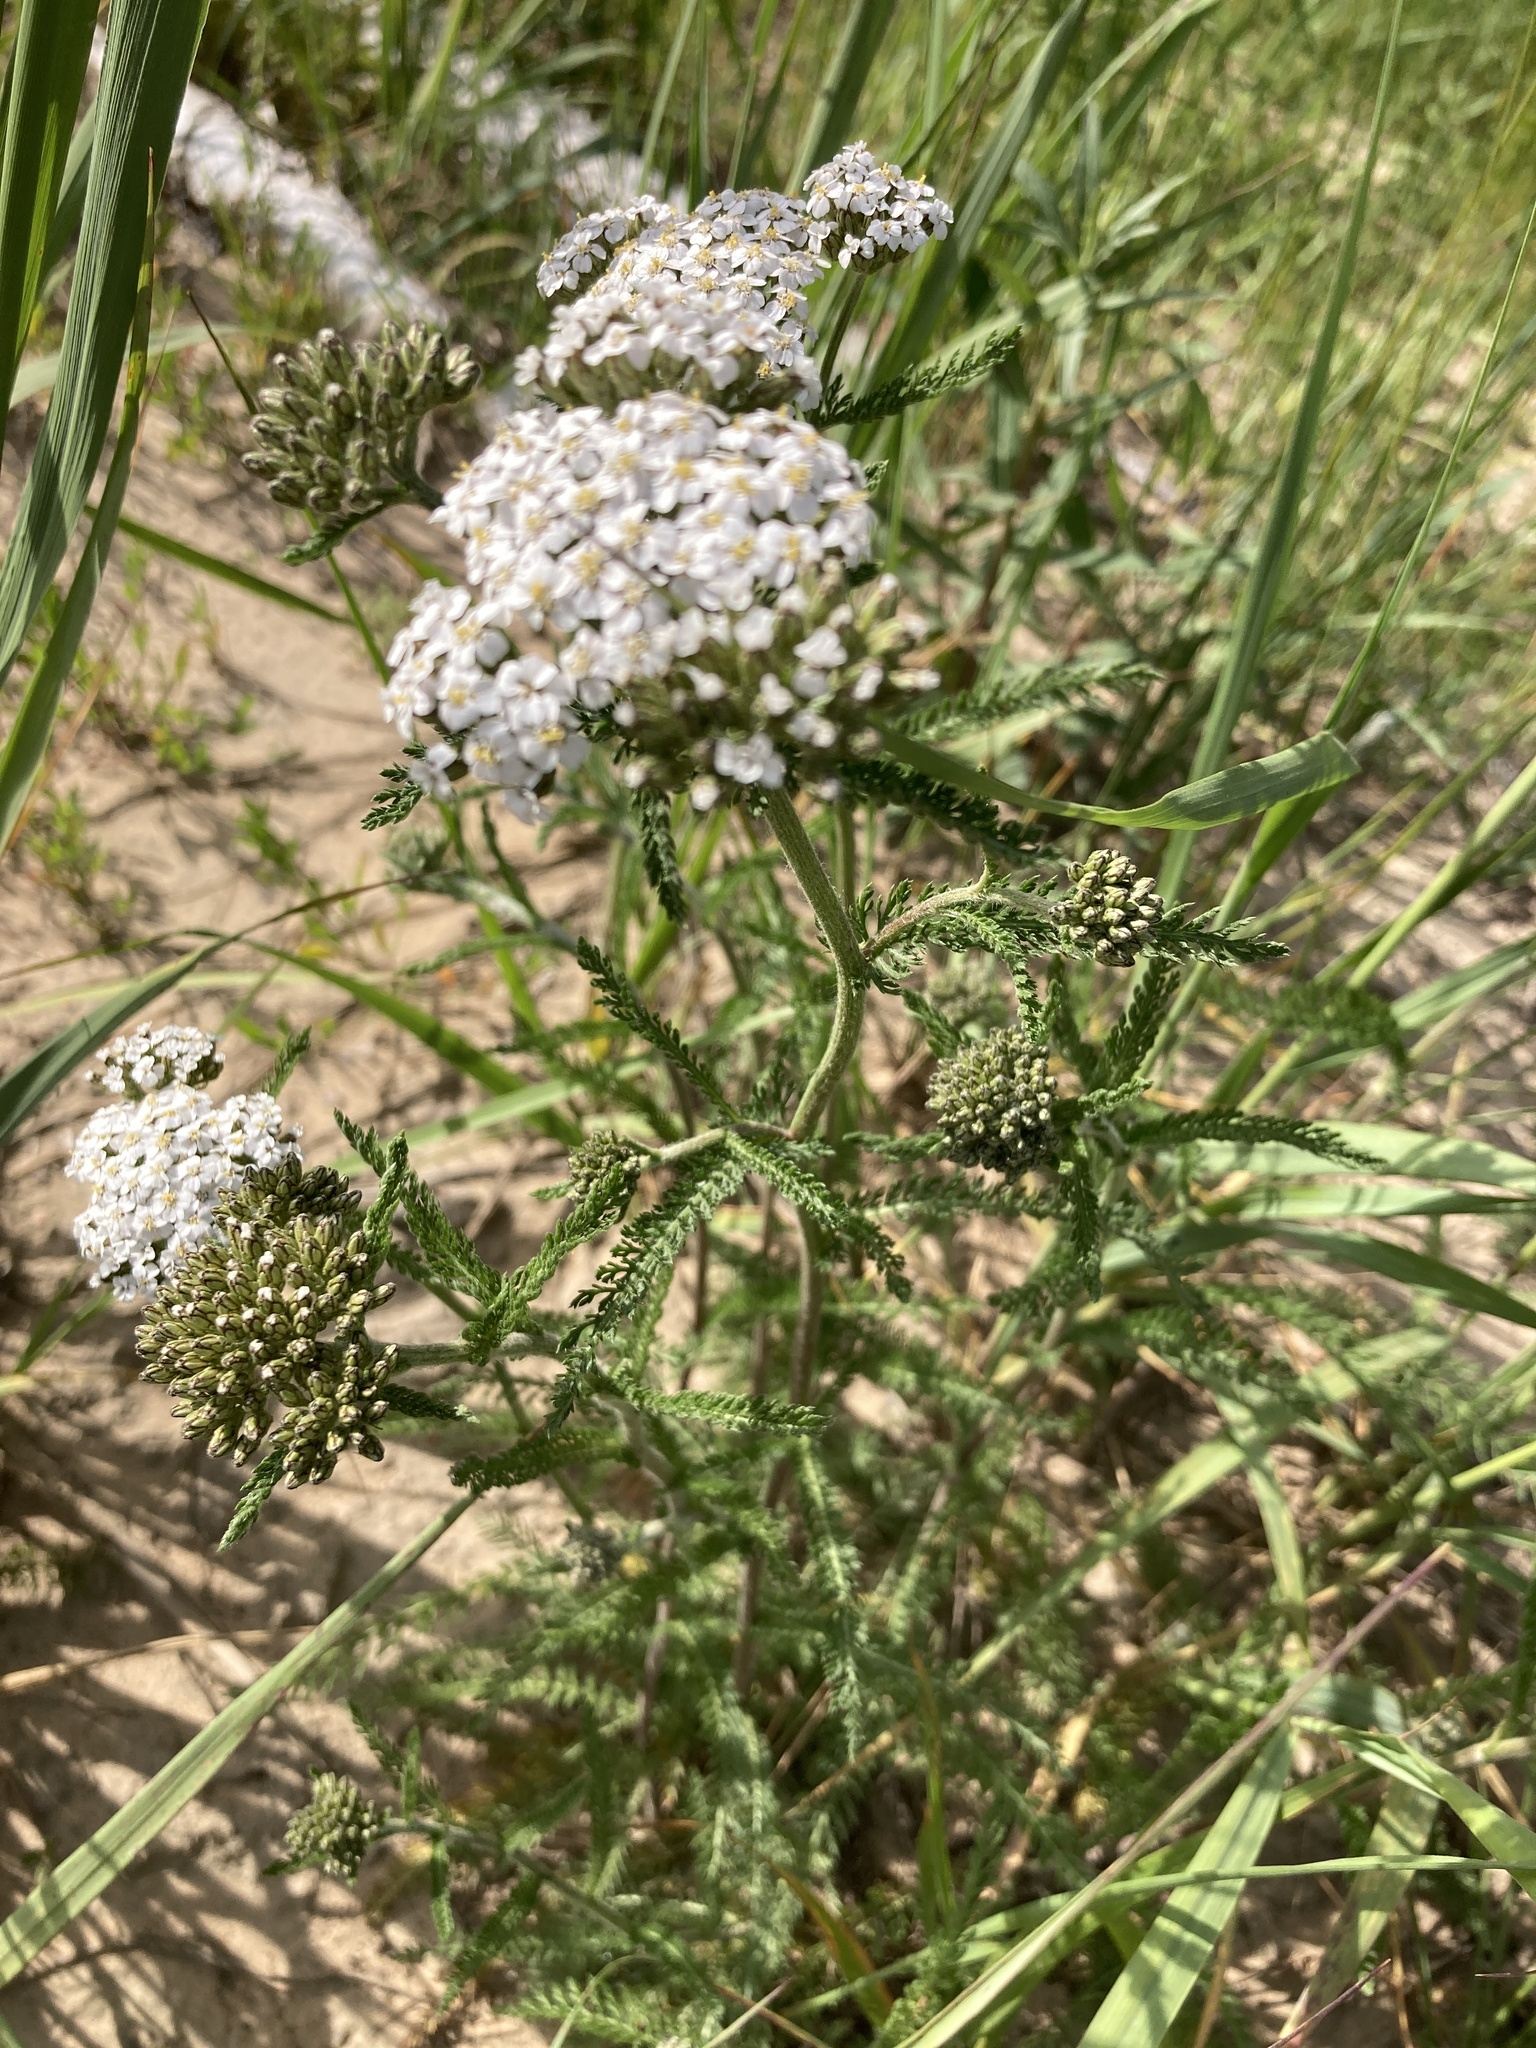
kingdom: Plantae
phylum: Tracheophyta
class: Magnoliopsida
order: Asterales
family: Asteraceae
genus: Achillea
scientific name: Achillea millefolium
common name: Yarrow
